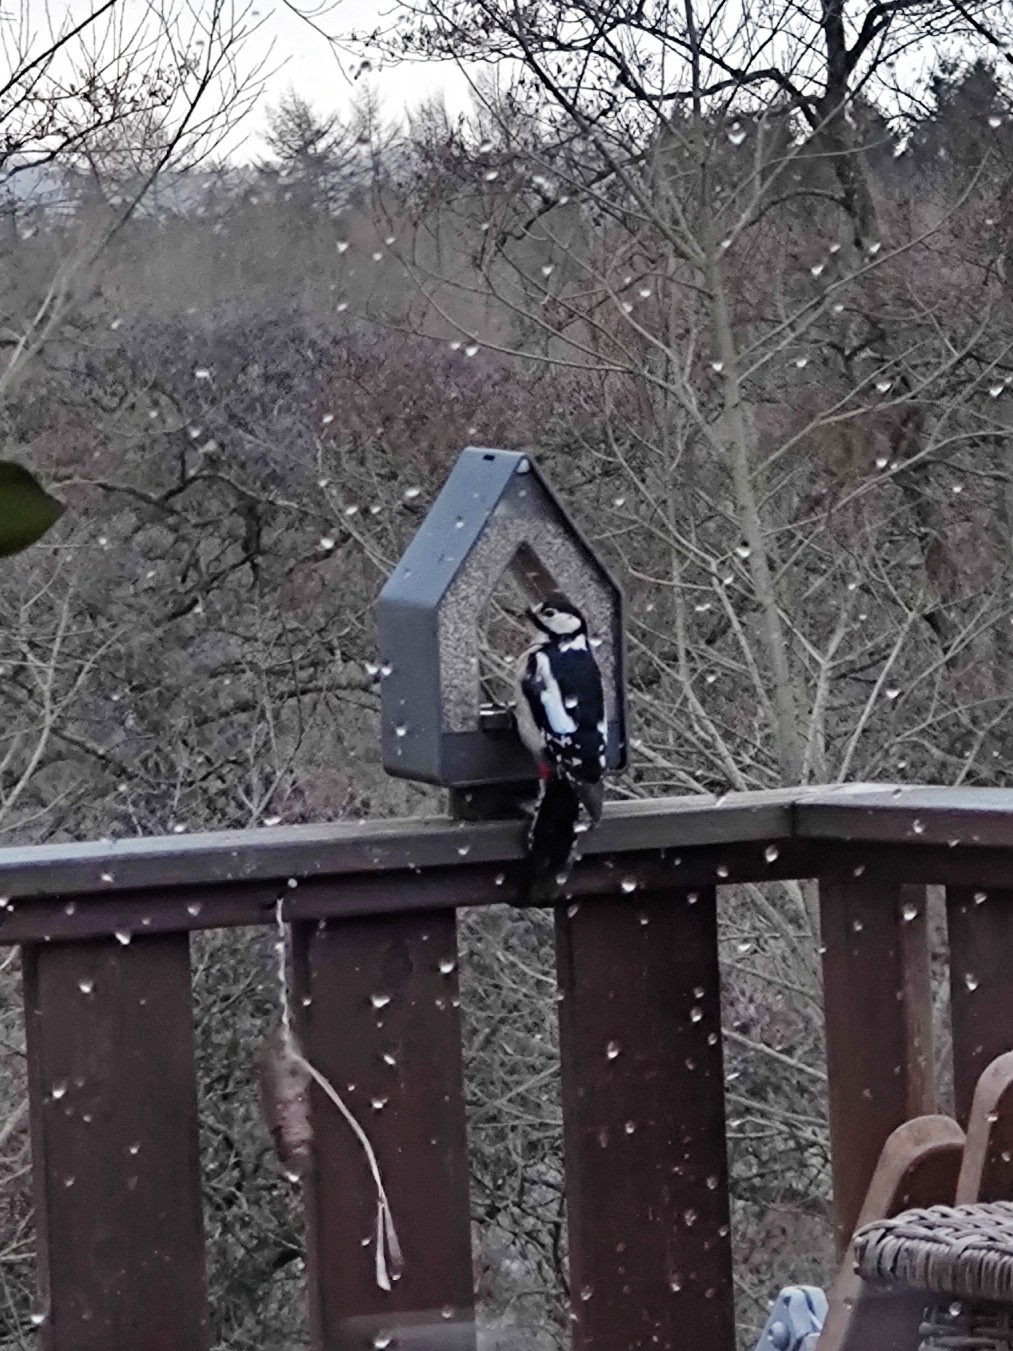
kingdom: Animalia
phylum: Chordata
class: Aves
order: Piciformes
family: Picidae
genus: Dendrocopos
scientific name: Dendrocopos major
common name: Great spotted woodpecker
